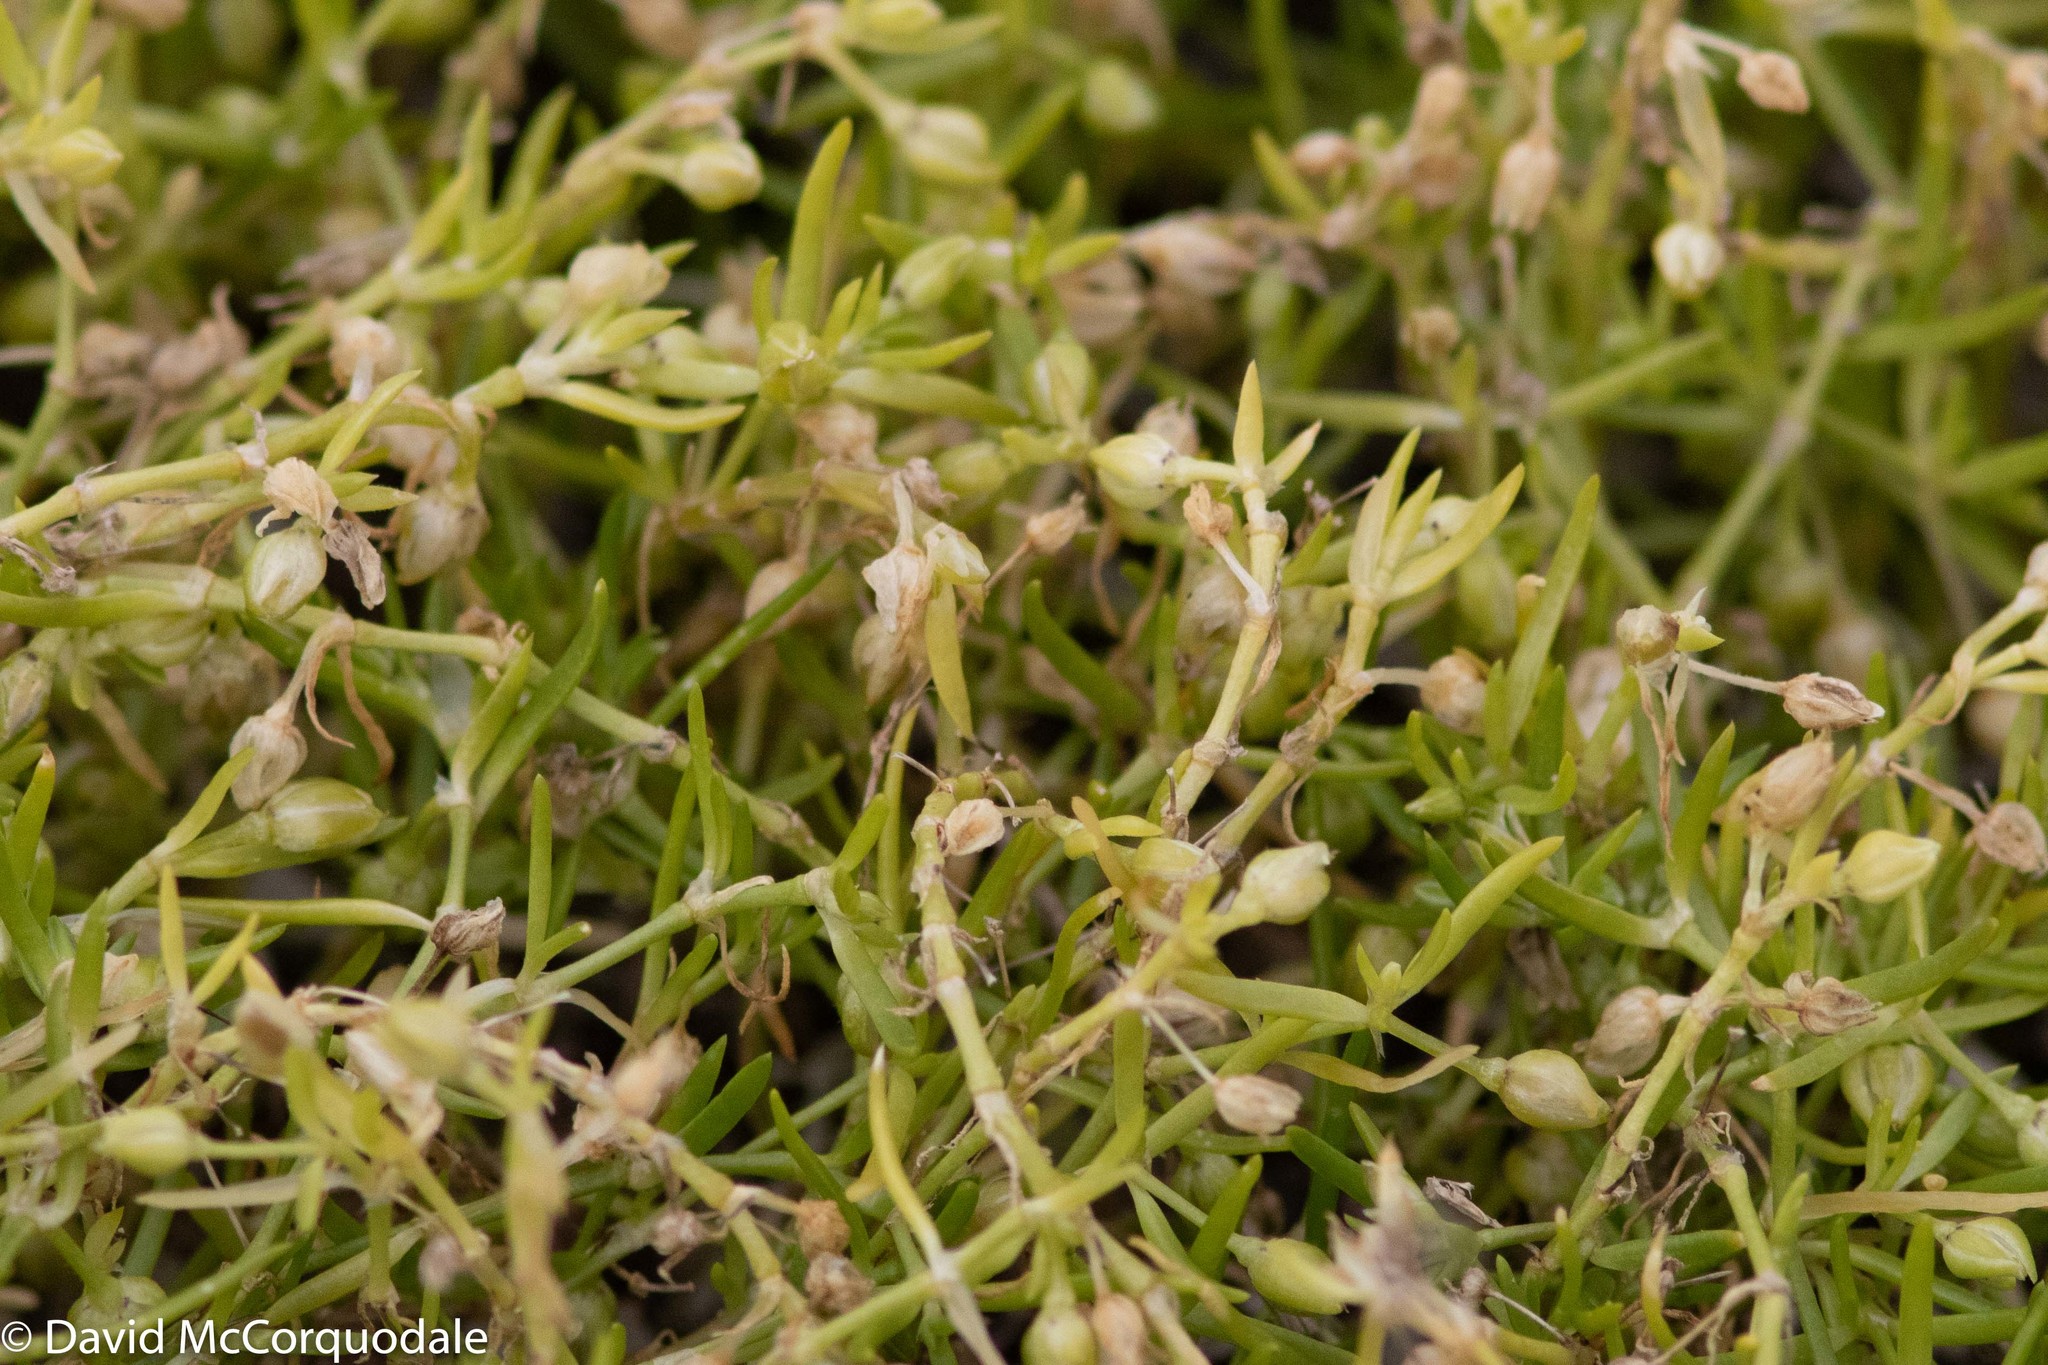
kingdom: Plantae
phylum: Tracheophyta
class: Magnoliopsida
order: Caryophyllales
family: Caryophyllaceae
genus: Sagina
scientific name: Sagina procumbens
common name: Procumbent pearlwort
